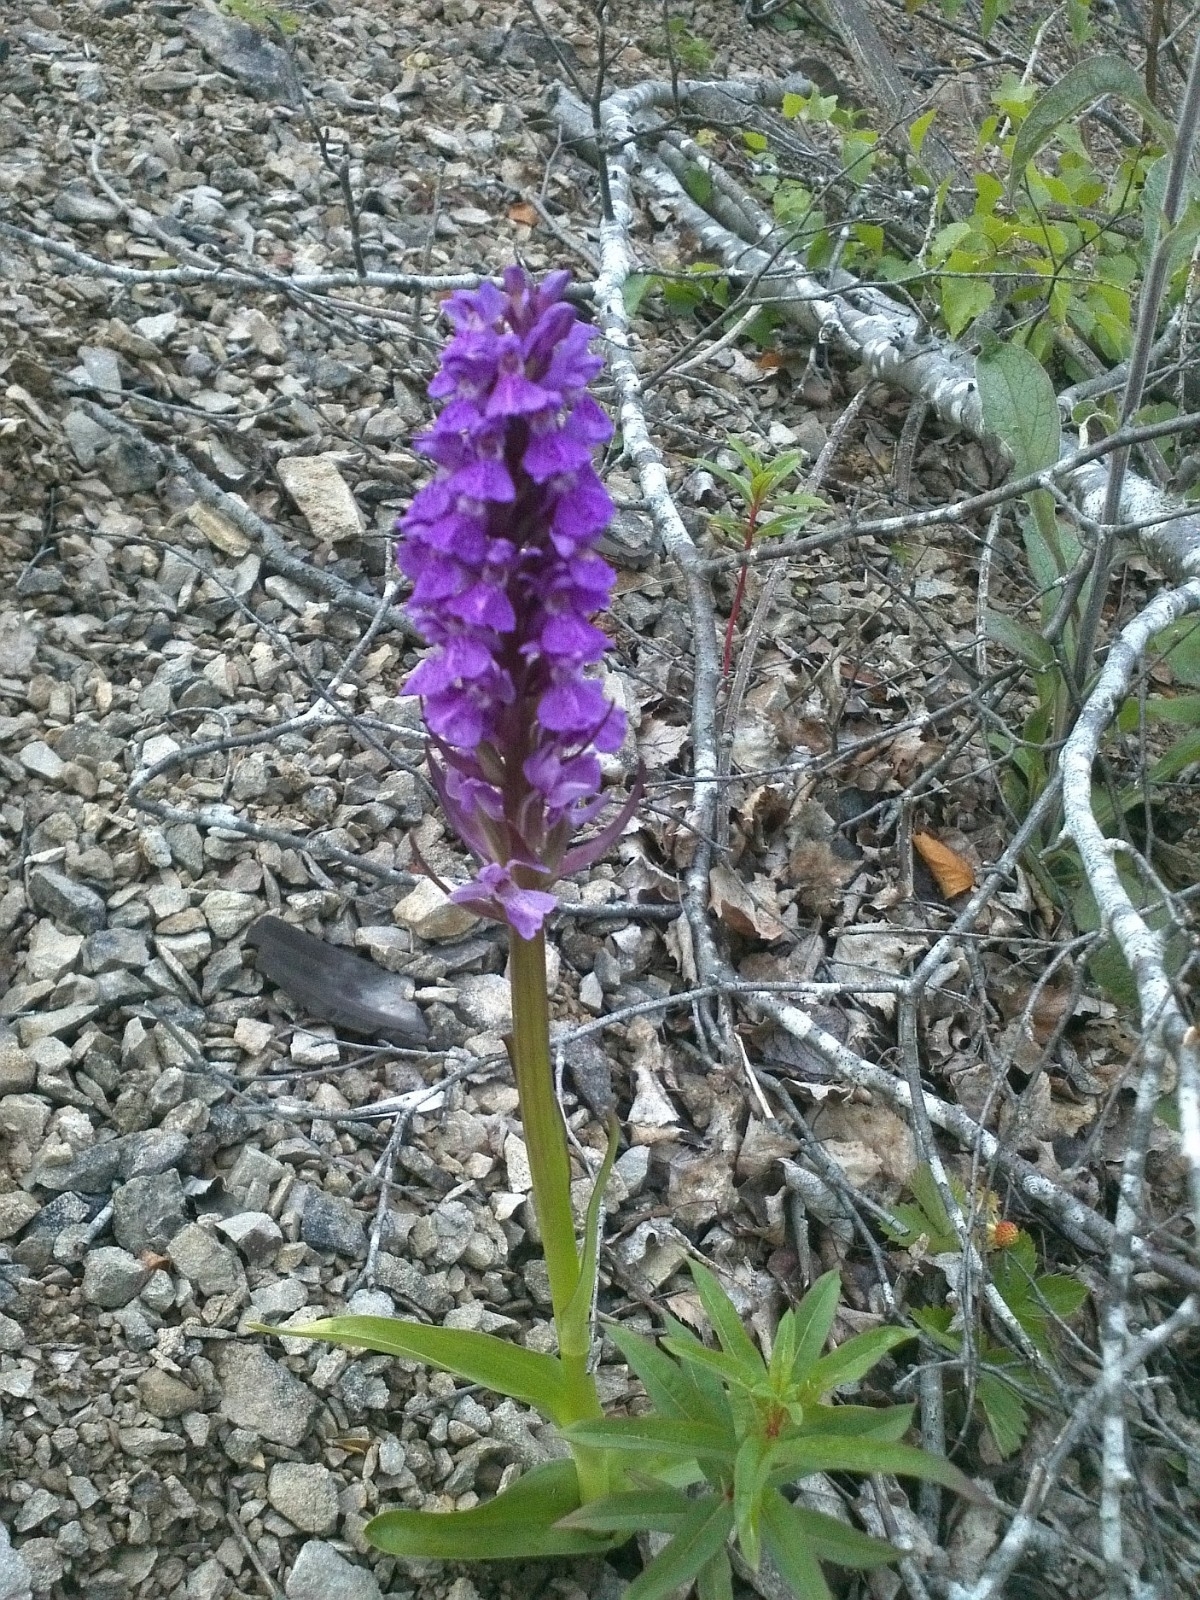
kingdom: Plantae
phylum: Tracheophyta
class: Liliopsida
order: Asparagales
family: Orchidaceae
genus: Dactylorhiza
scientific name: Dactylorhiza majalis
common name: Marsh orchid
